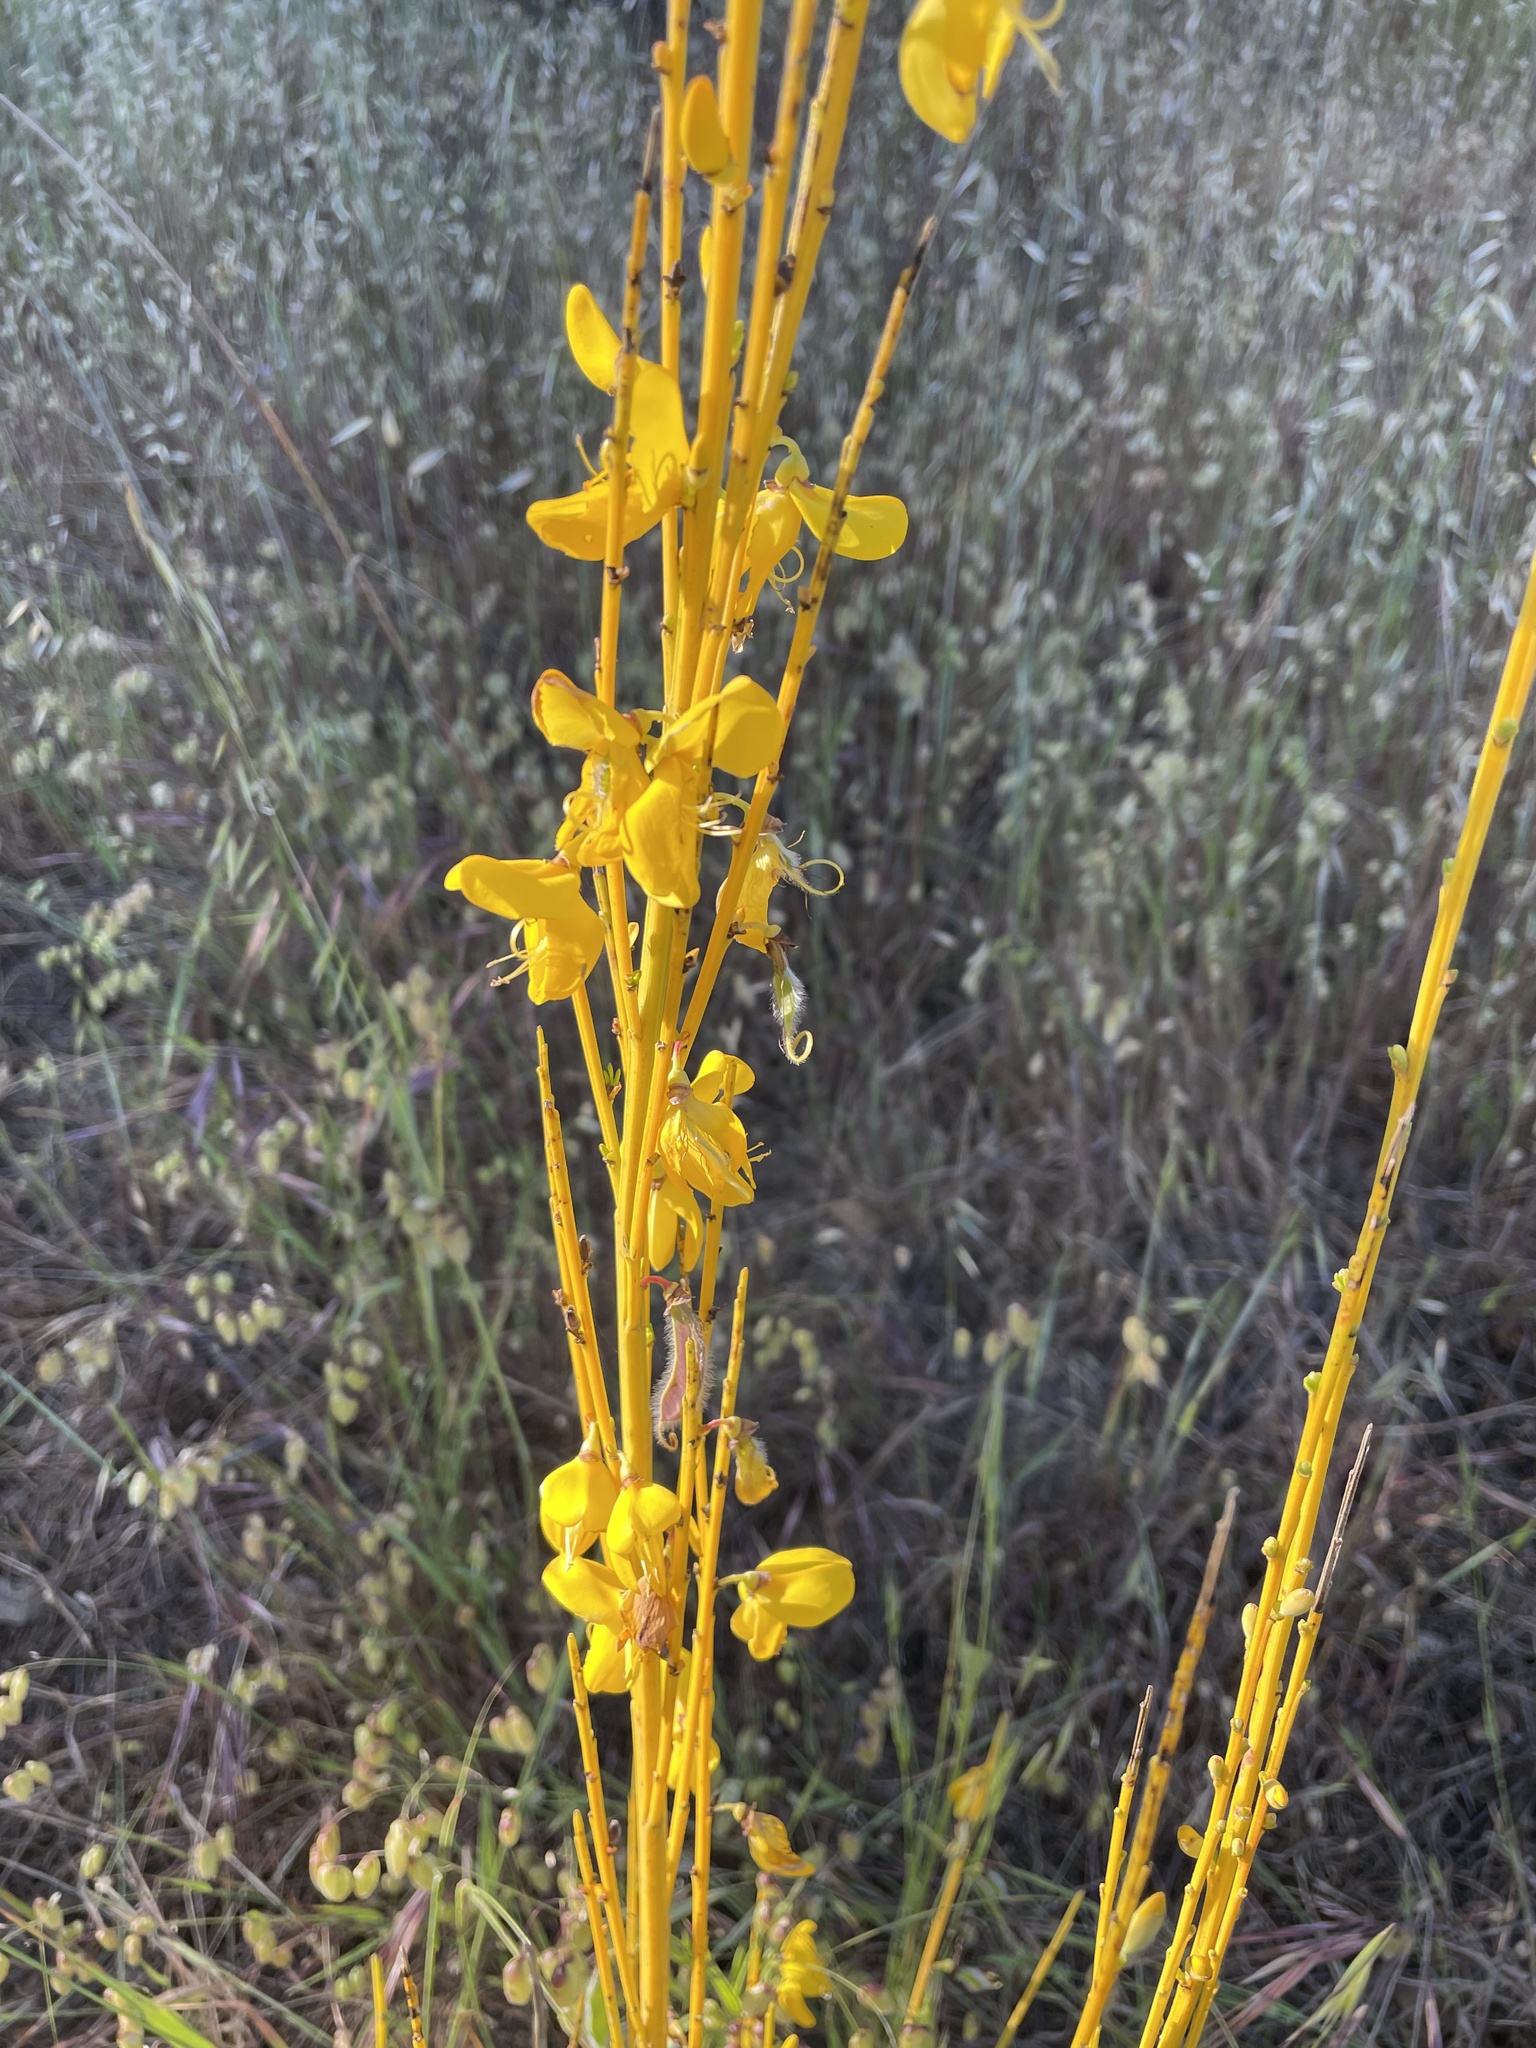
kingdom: Plantae
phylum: Tracheophyta
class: Magnoliopsida
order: Fabales
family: Fabaceae
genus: Cytisus
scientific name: Cytisus scoparius
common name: Scotch broom
